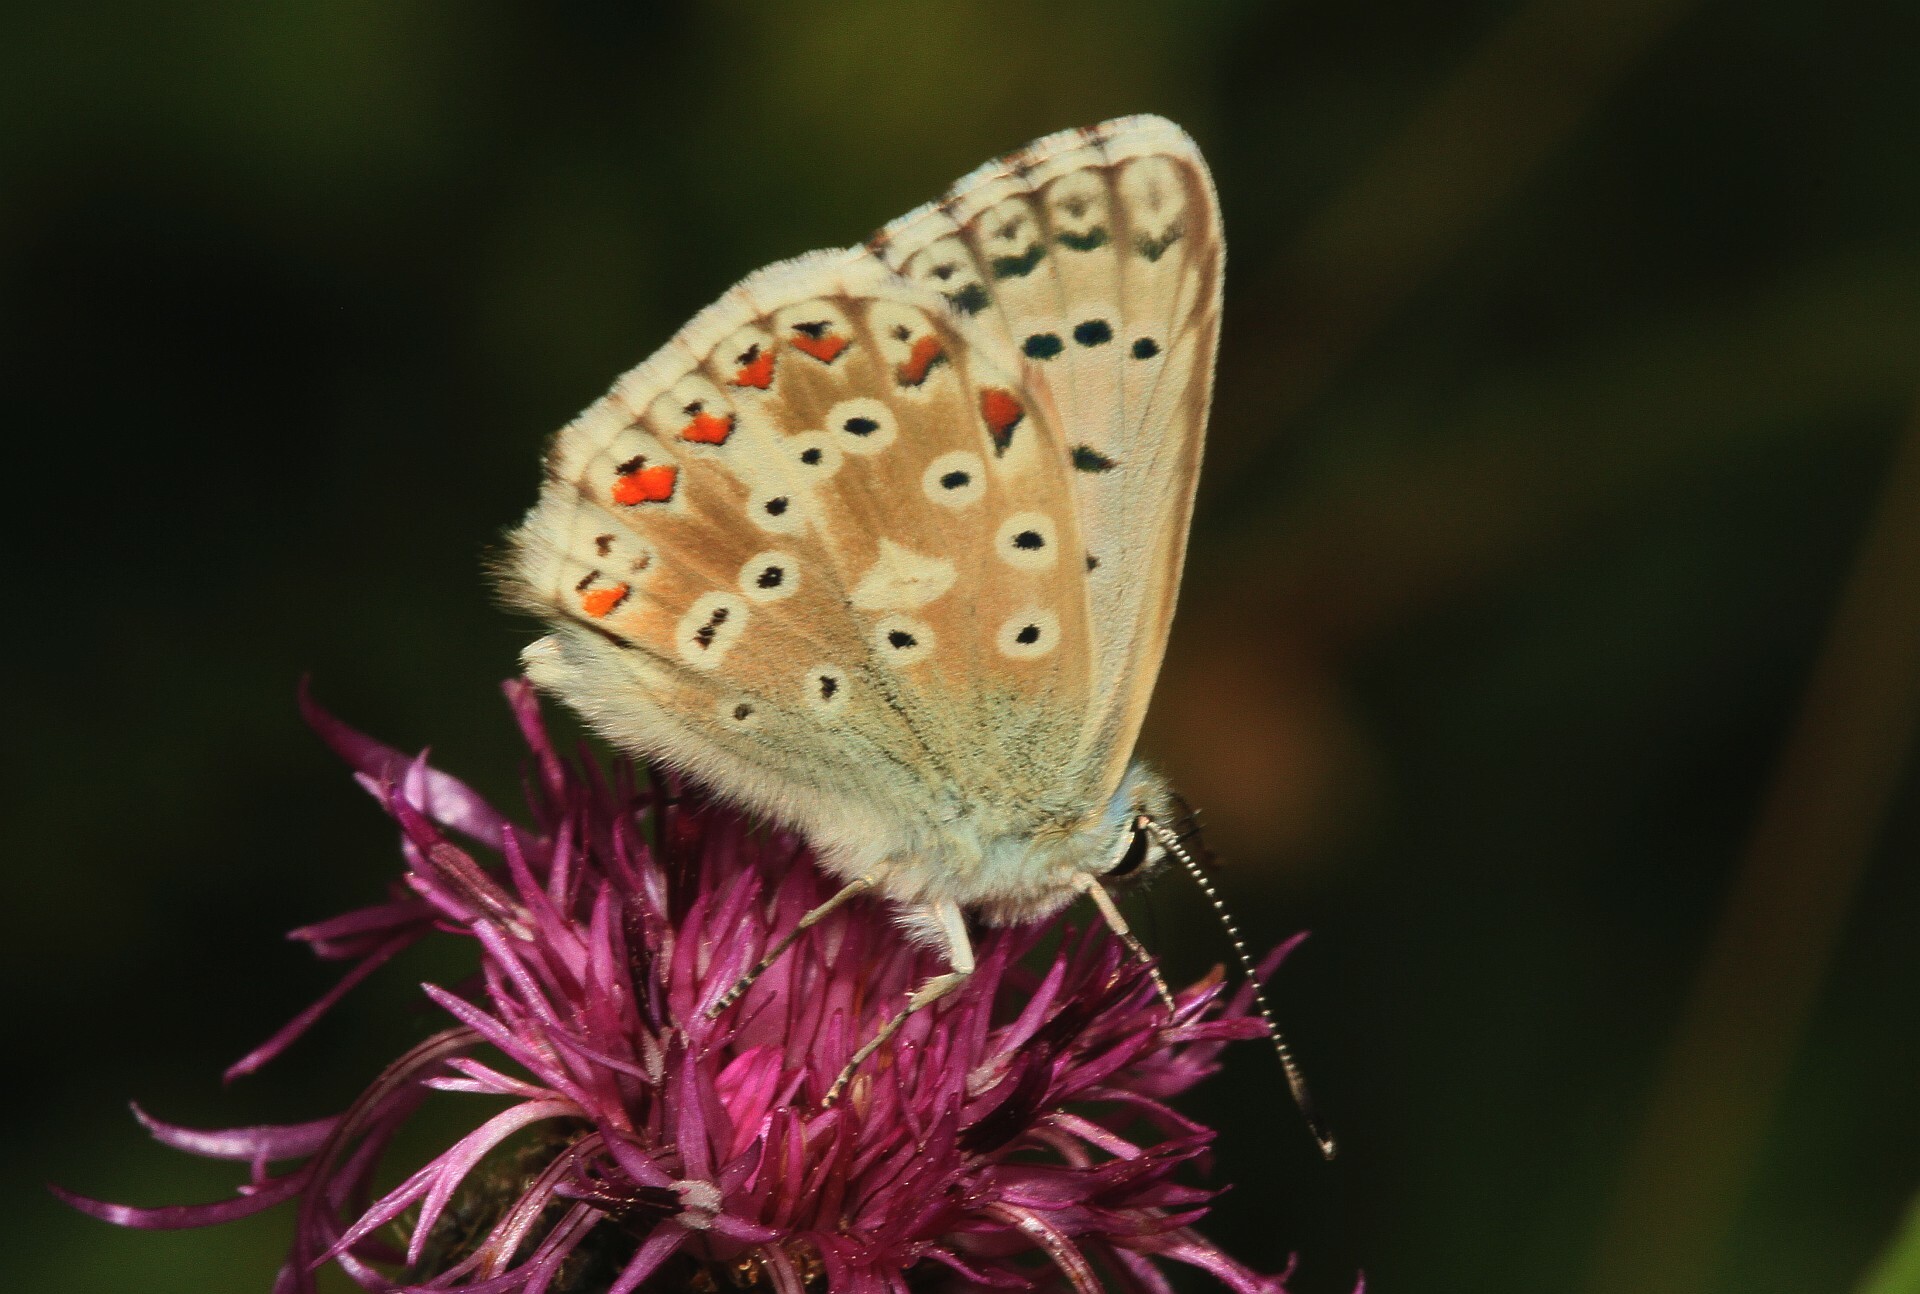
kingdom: Animalia
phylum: Arthropoda
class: Insecta
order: Lepidoptera
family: Lycaenidae
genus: Lysandra
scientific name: Lysandra coridon
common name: Chalkhill blue
